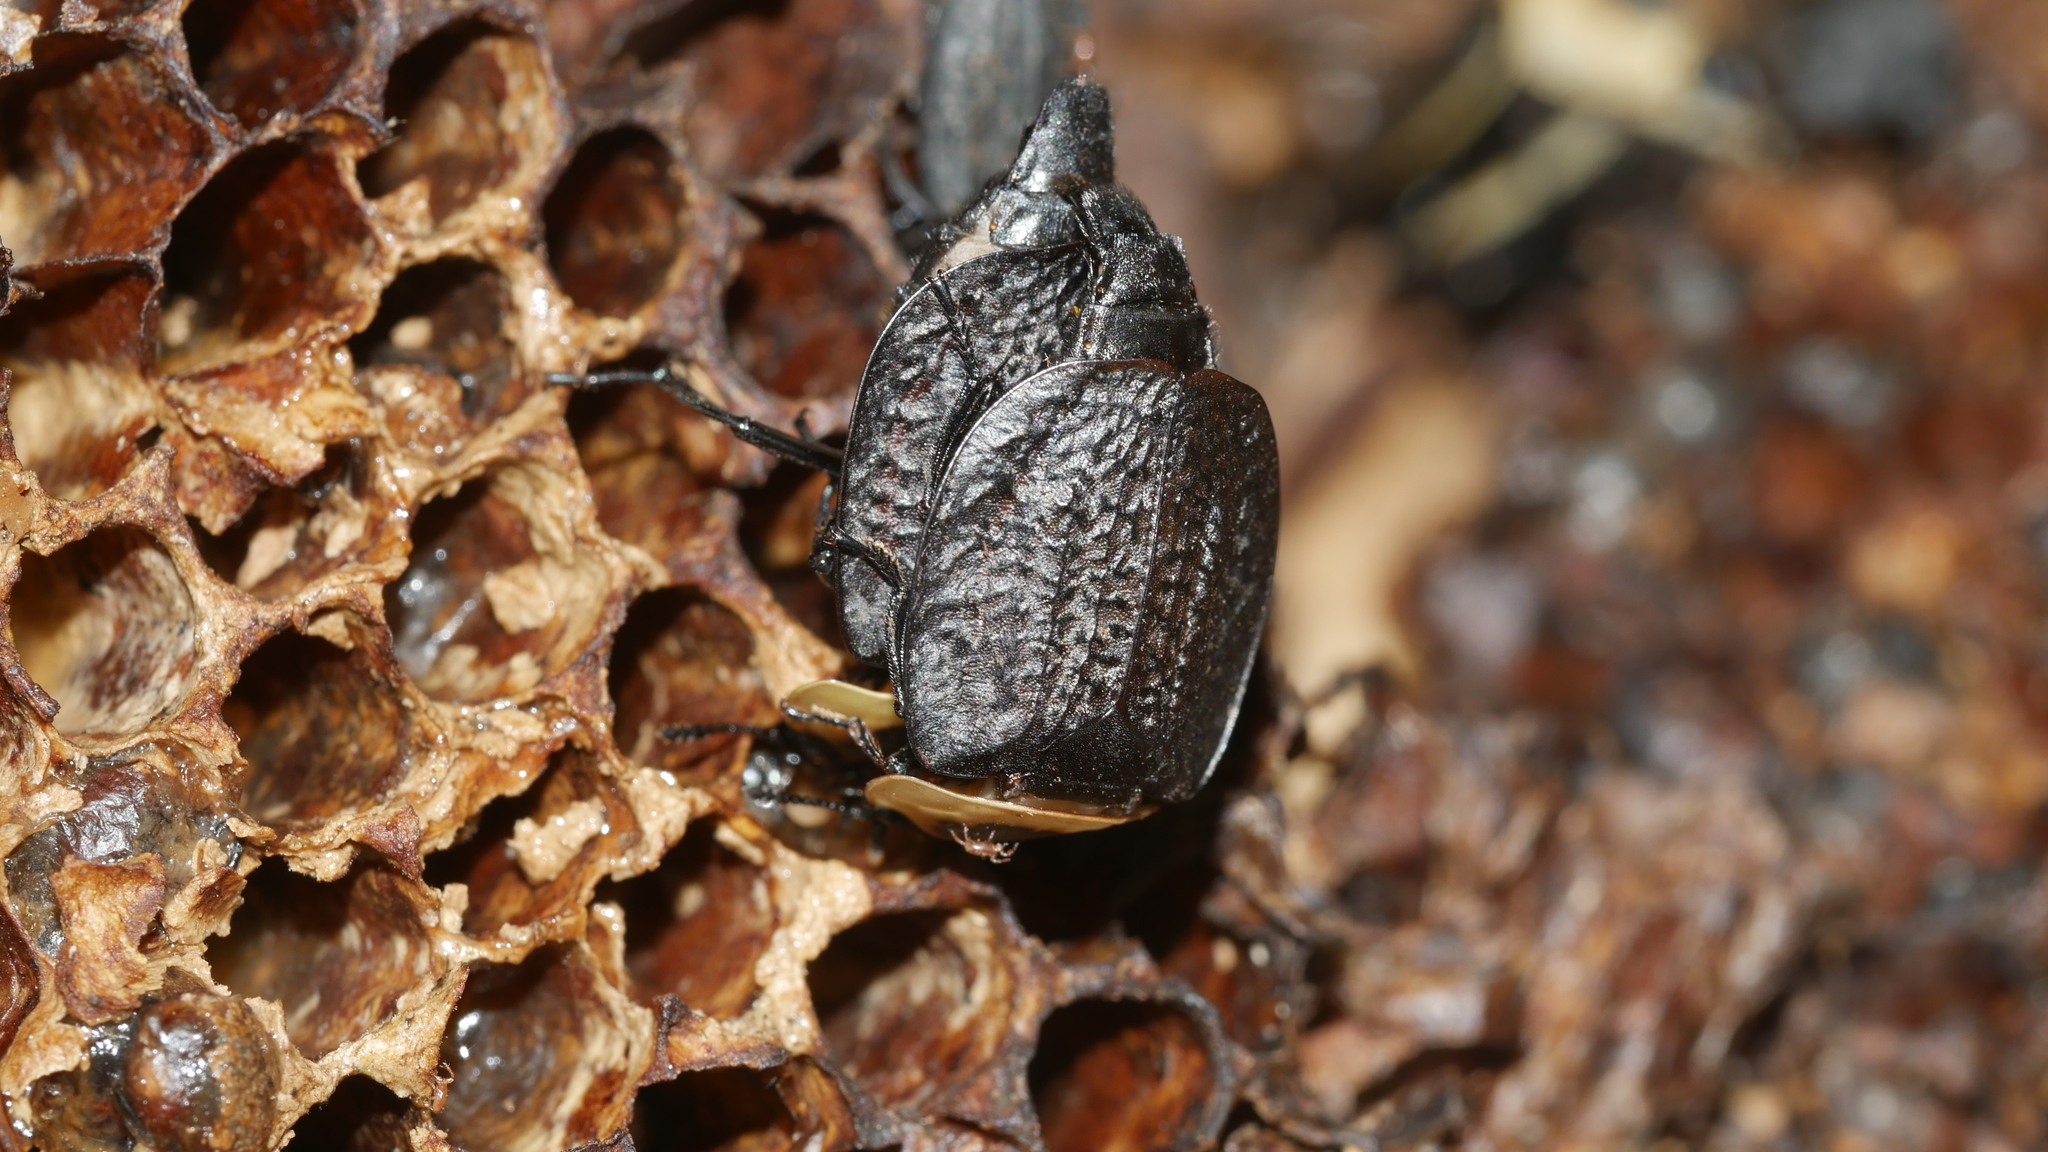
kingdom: Animalia
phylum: Arthropoda
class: Insecta
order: Coleoptera
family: Staphylinidae
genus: Necrophila
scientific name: Necrophila americana
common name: American carrion beetle
